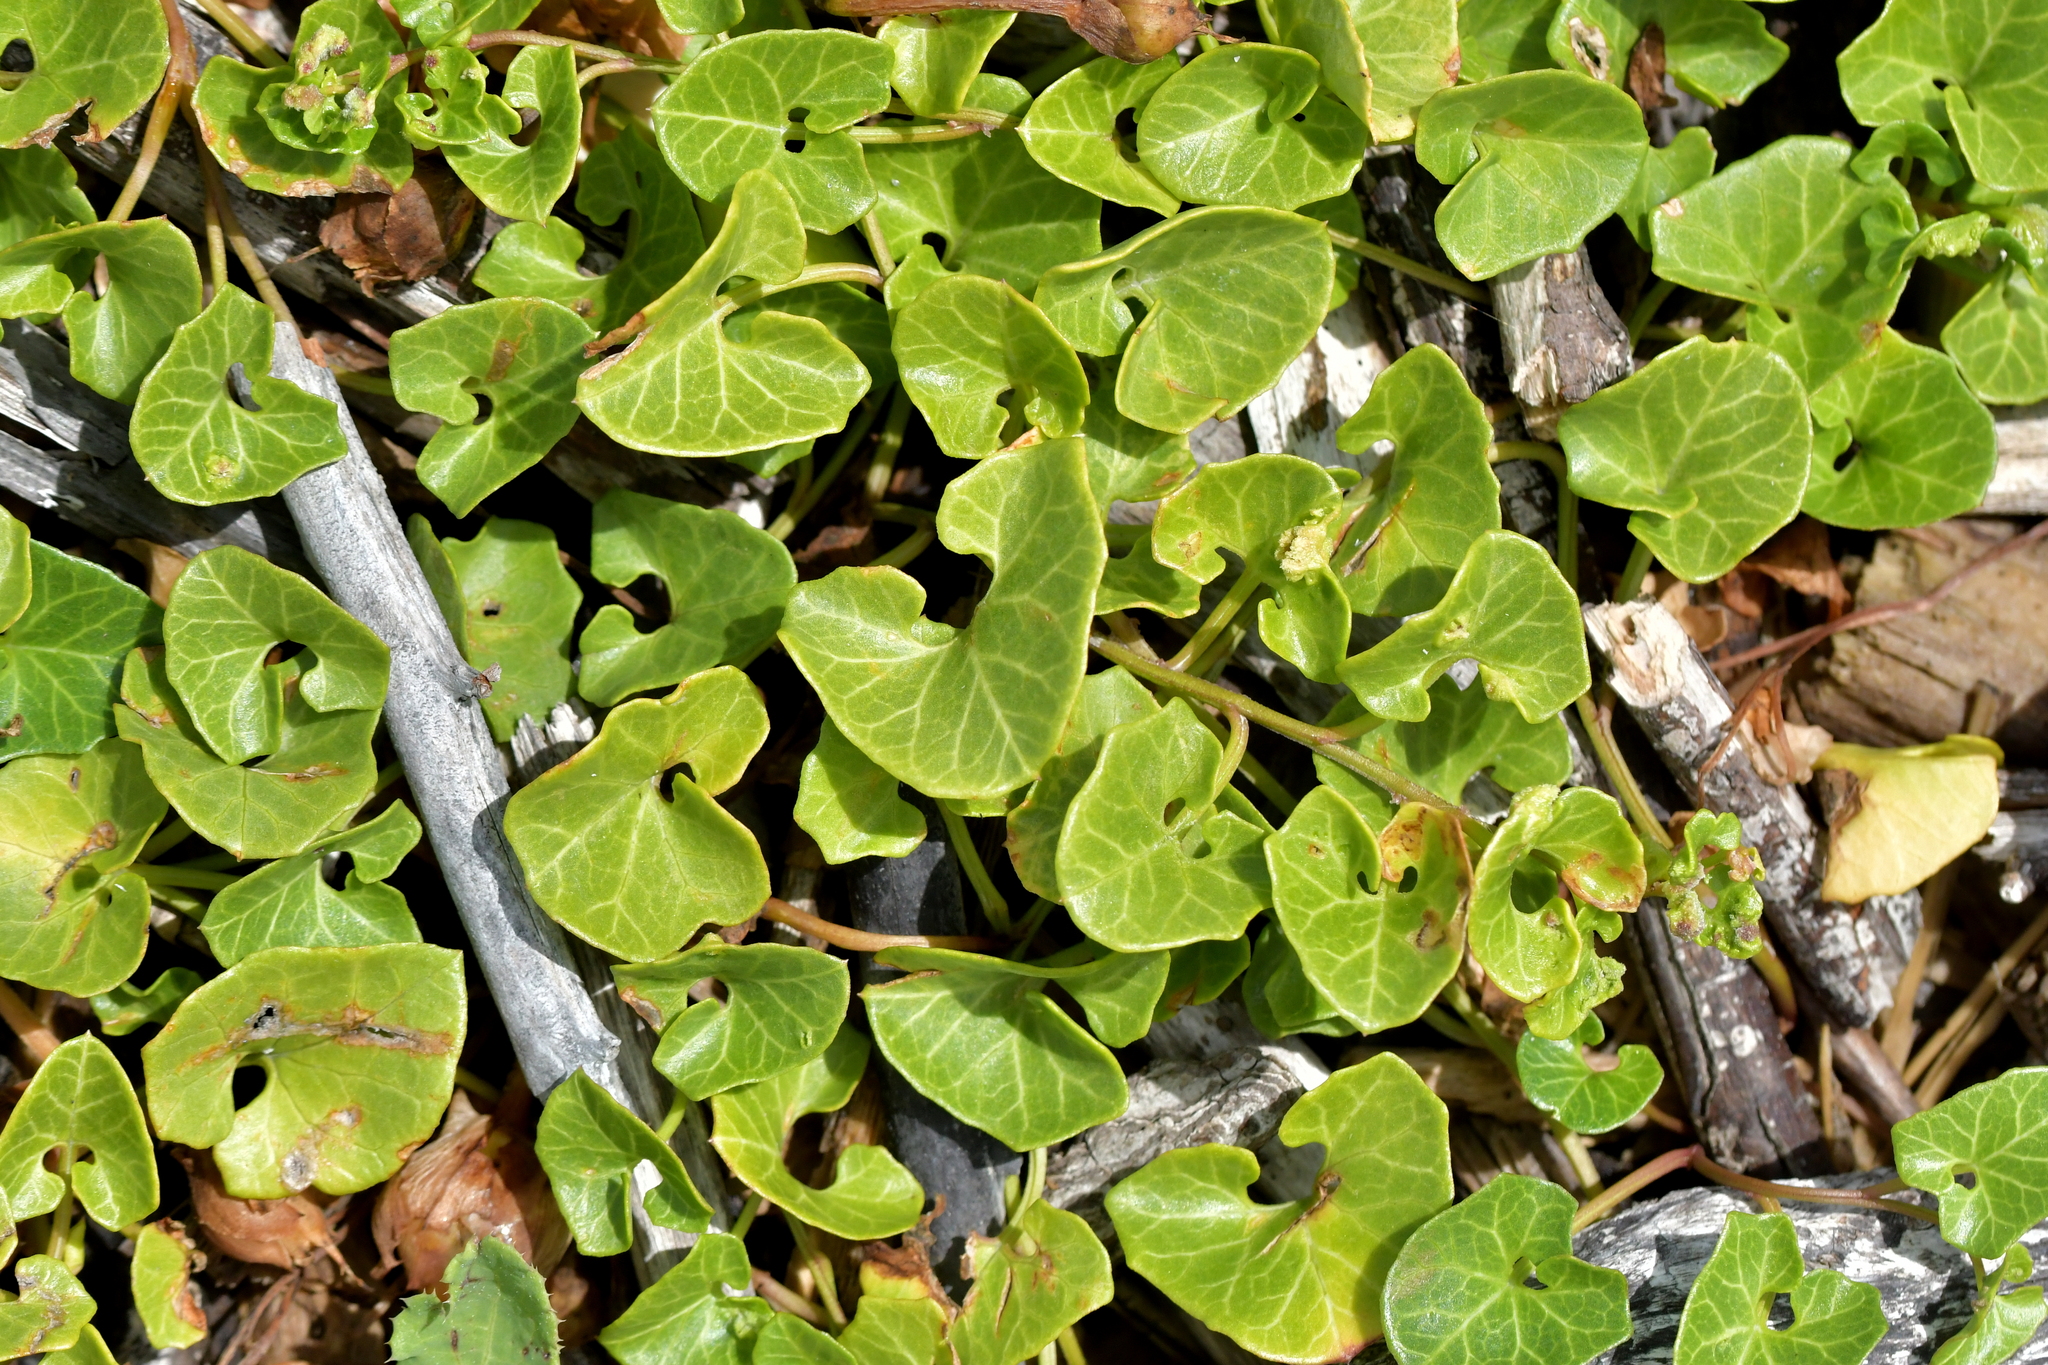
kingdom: Plantae
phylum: Tracheophyta
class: Magnoliopsida
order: Solanales
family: Convolvulaceae
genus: Calystegia
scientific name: Calystegia soldanella
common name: Sea bindweed
